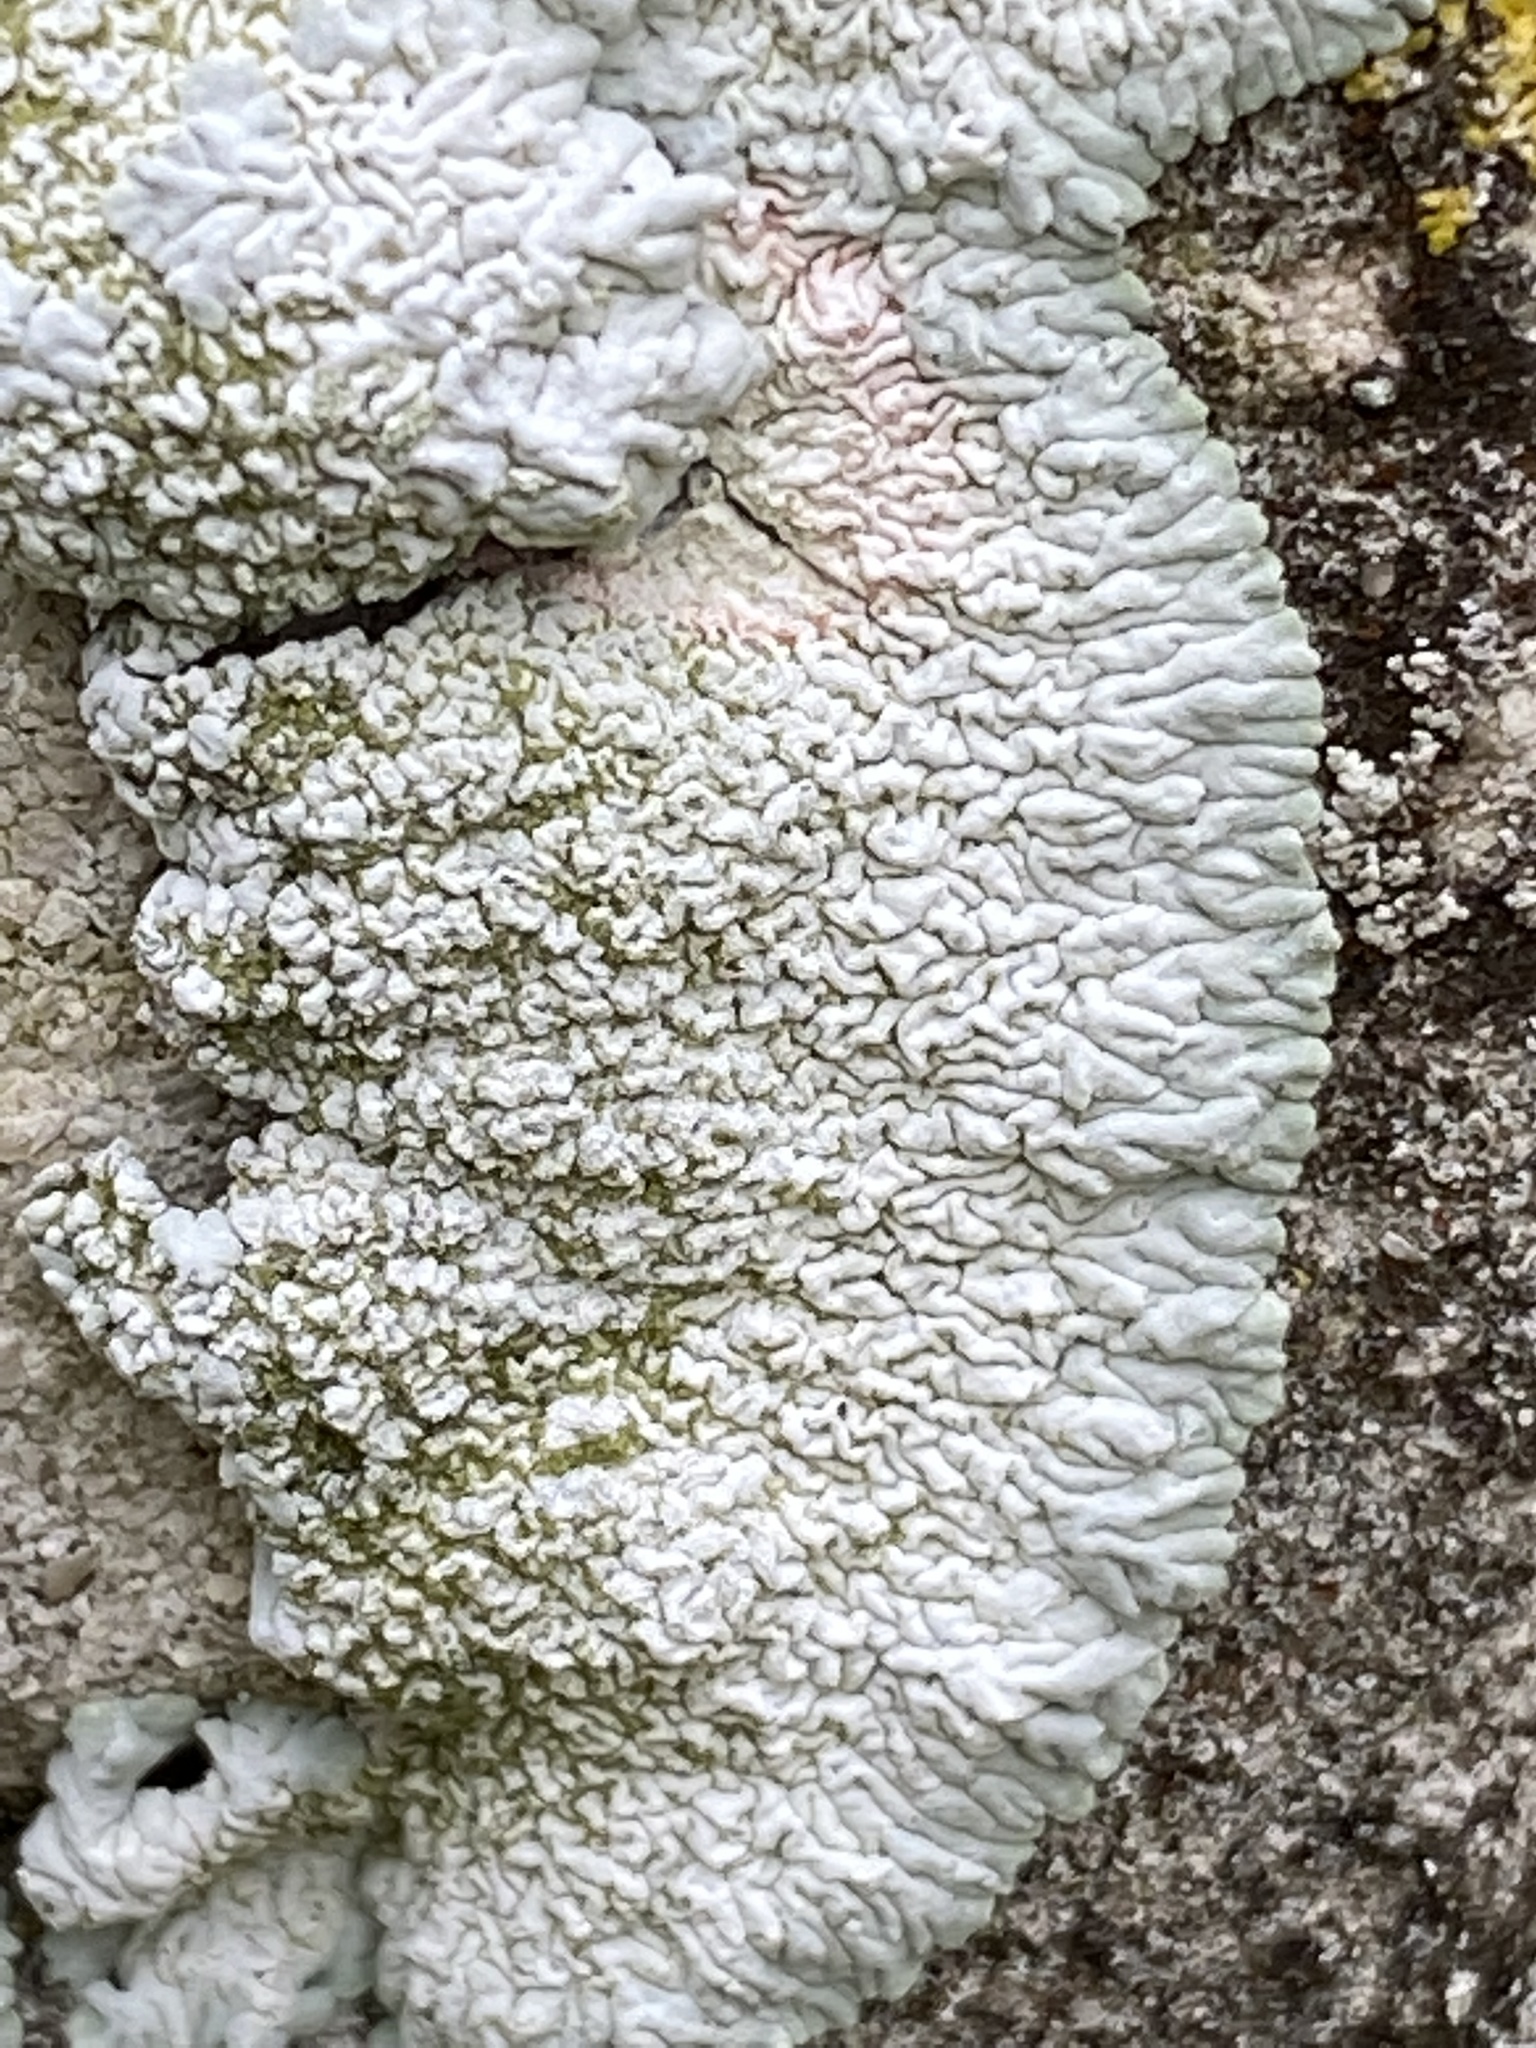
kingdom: Fungi
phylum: Ascomycota
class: Lecanoromycetes
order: Caliciales
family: Caliciaceae
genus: Diploicia
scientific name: Diploicia canescens
